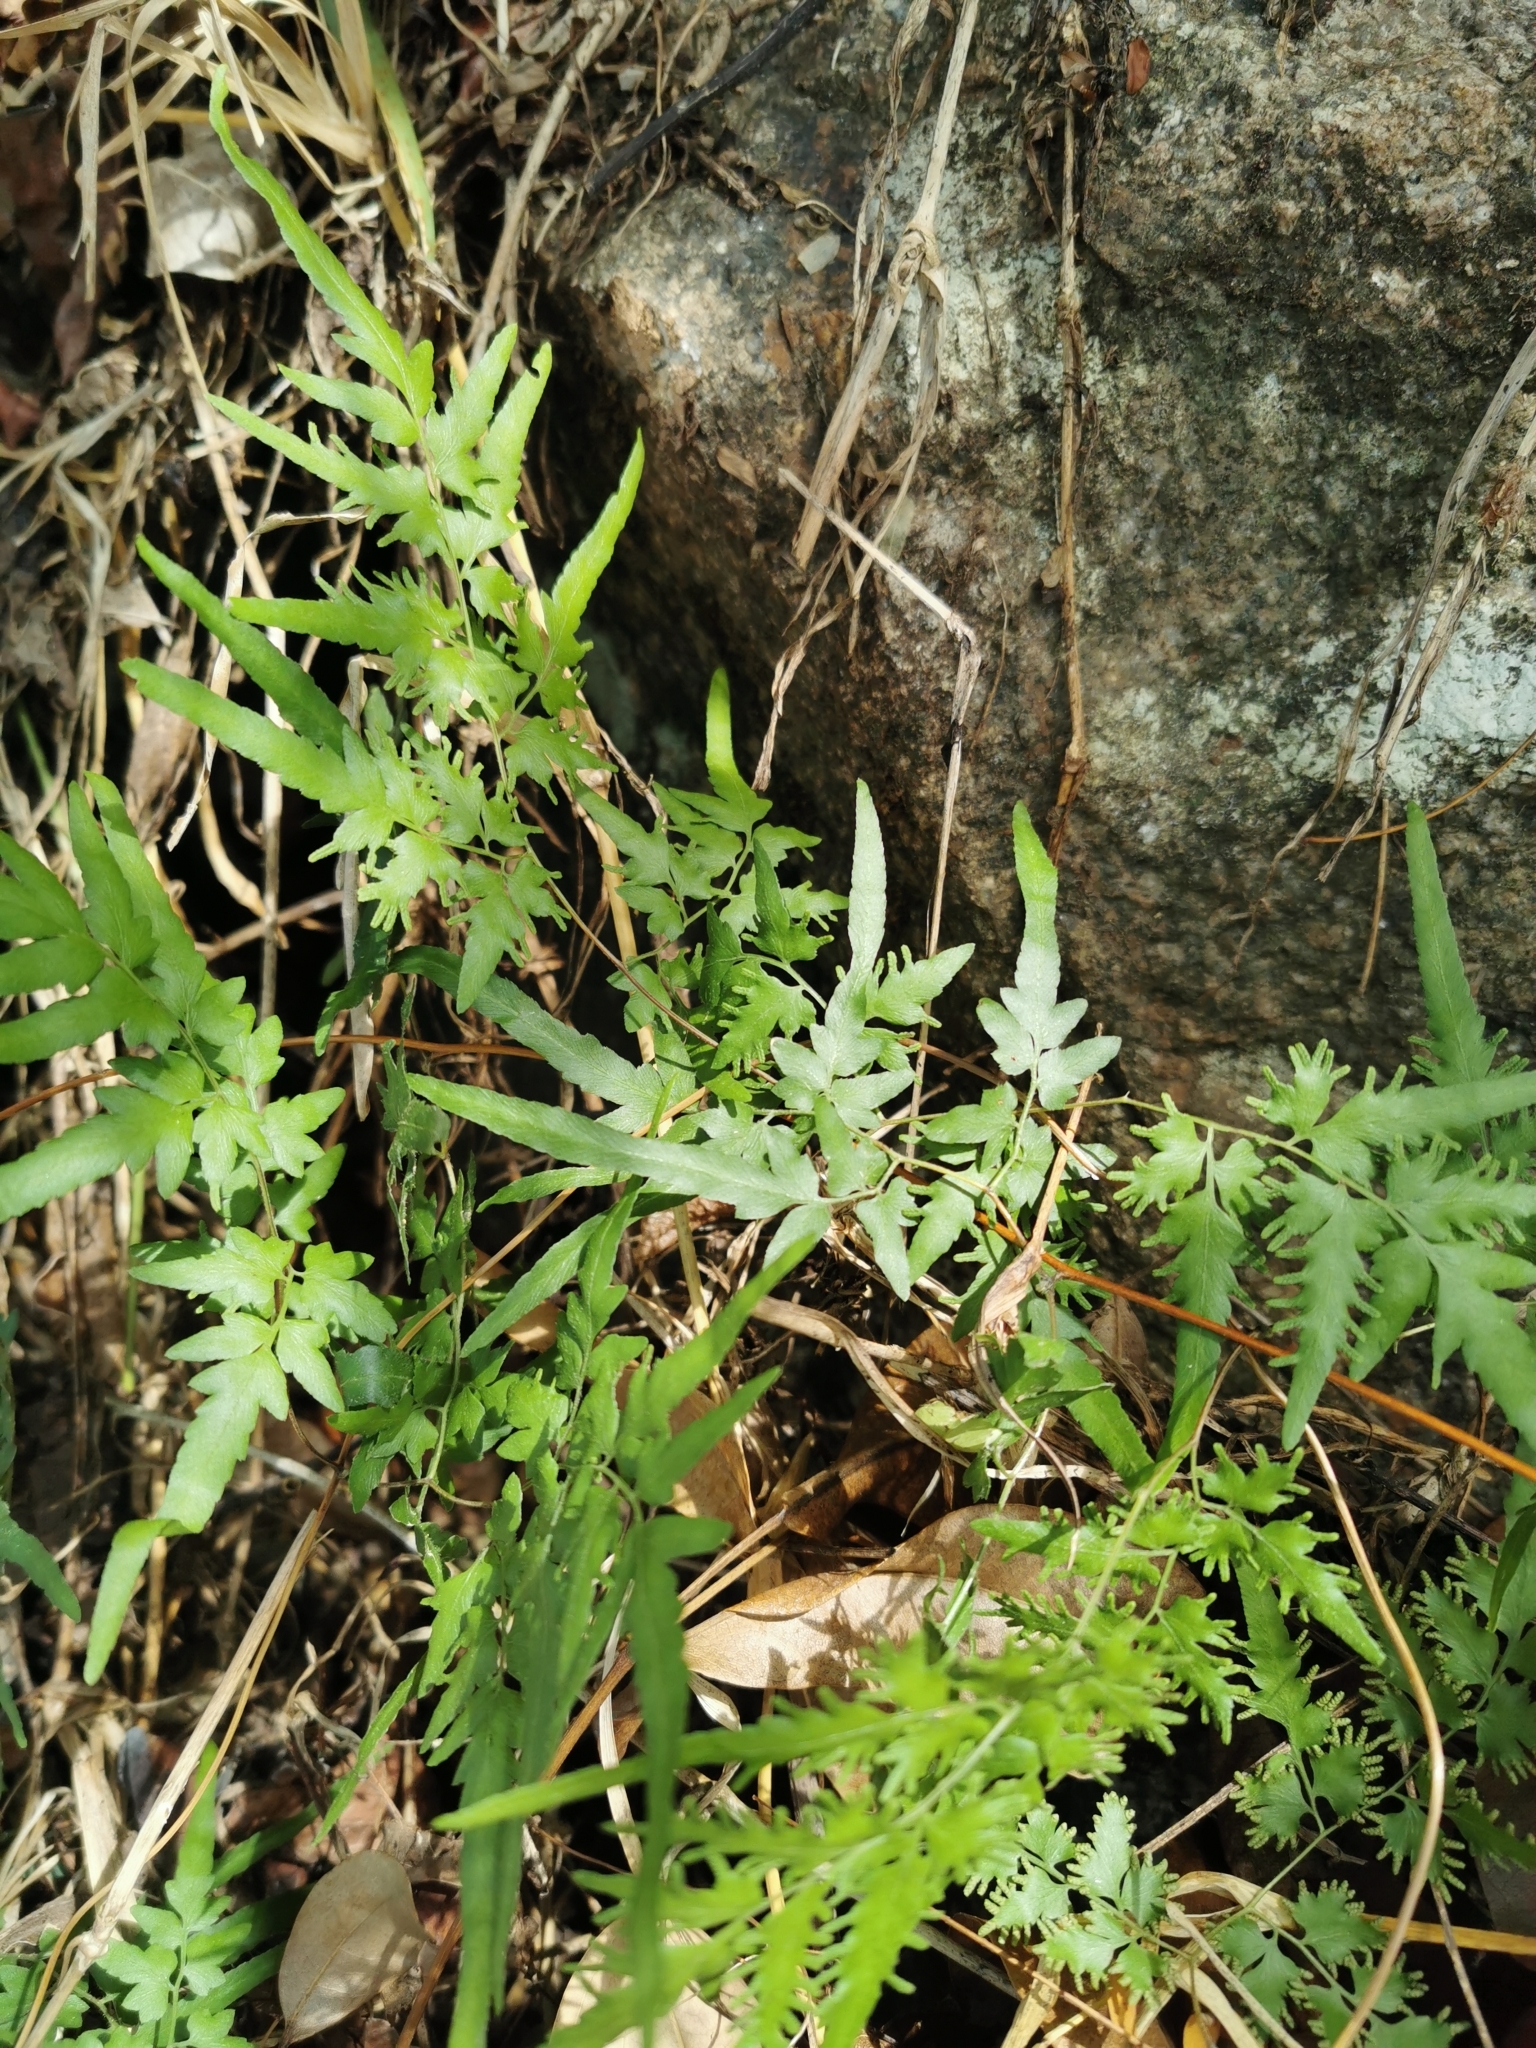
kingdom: Plantae
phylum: Tracheophyta
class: Polypodiopsida
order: Schizaeales
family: Lygodiaceae
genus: Lygodium
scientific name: Lygodium japonicum
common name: Japanese climbing fern
